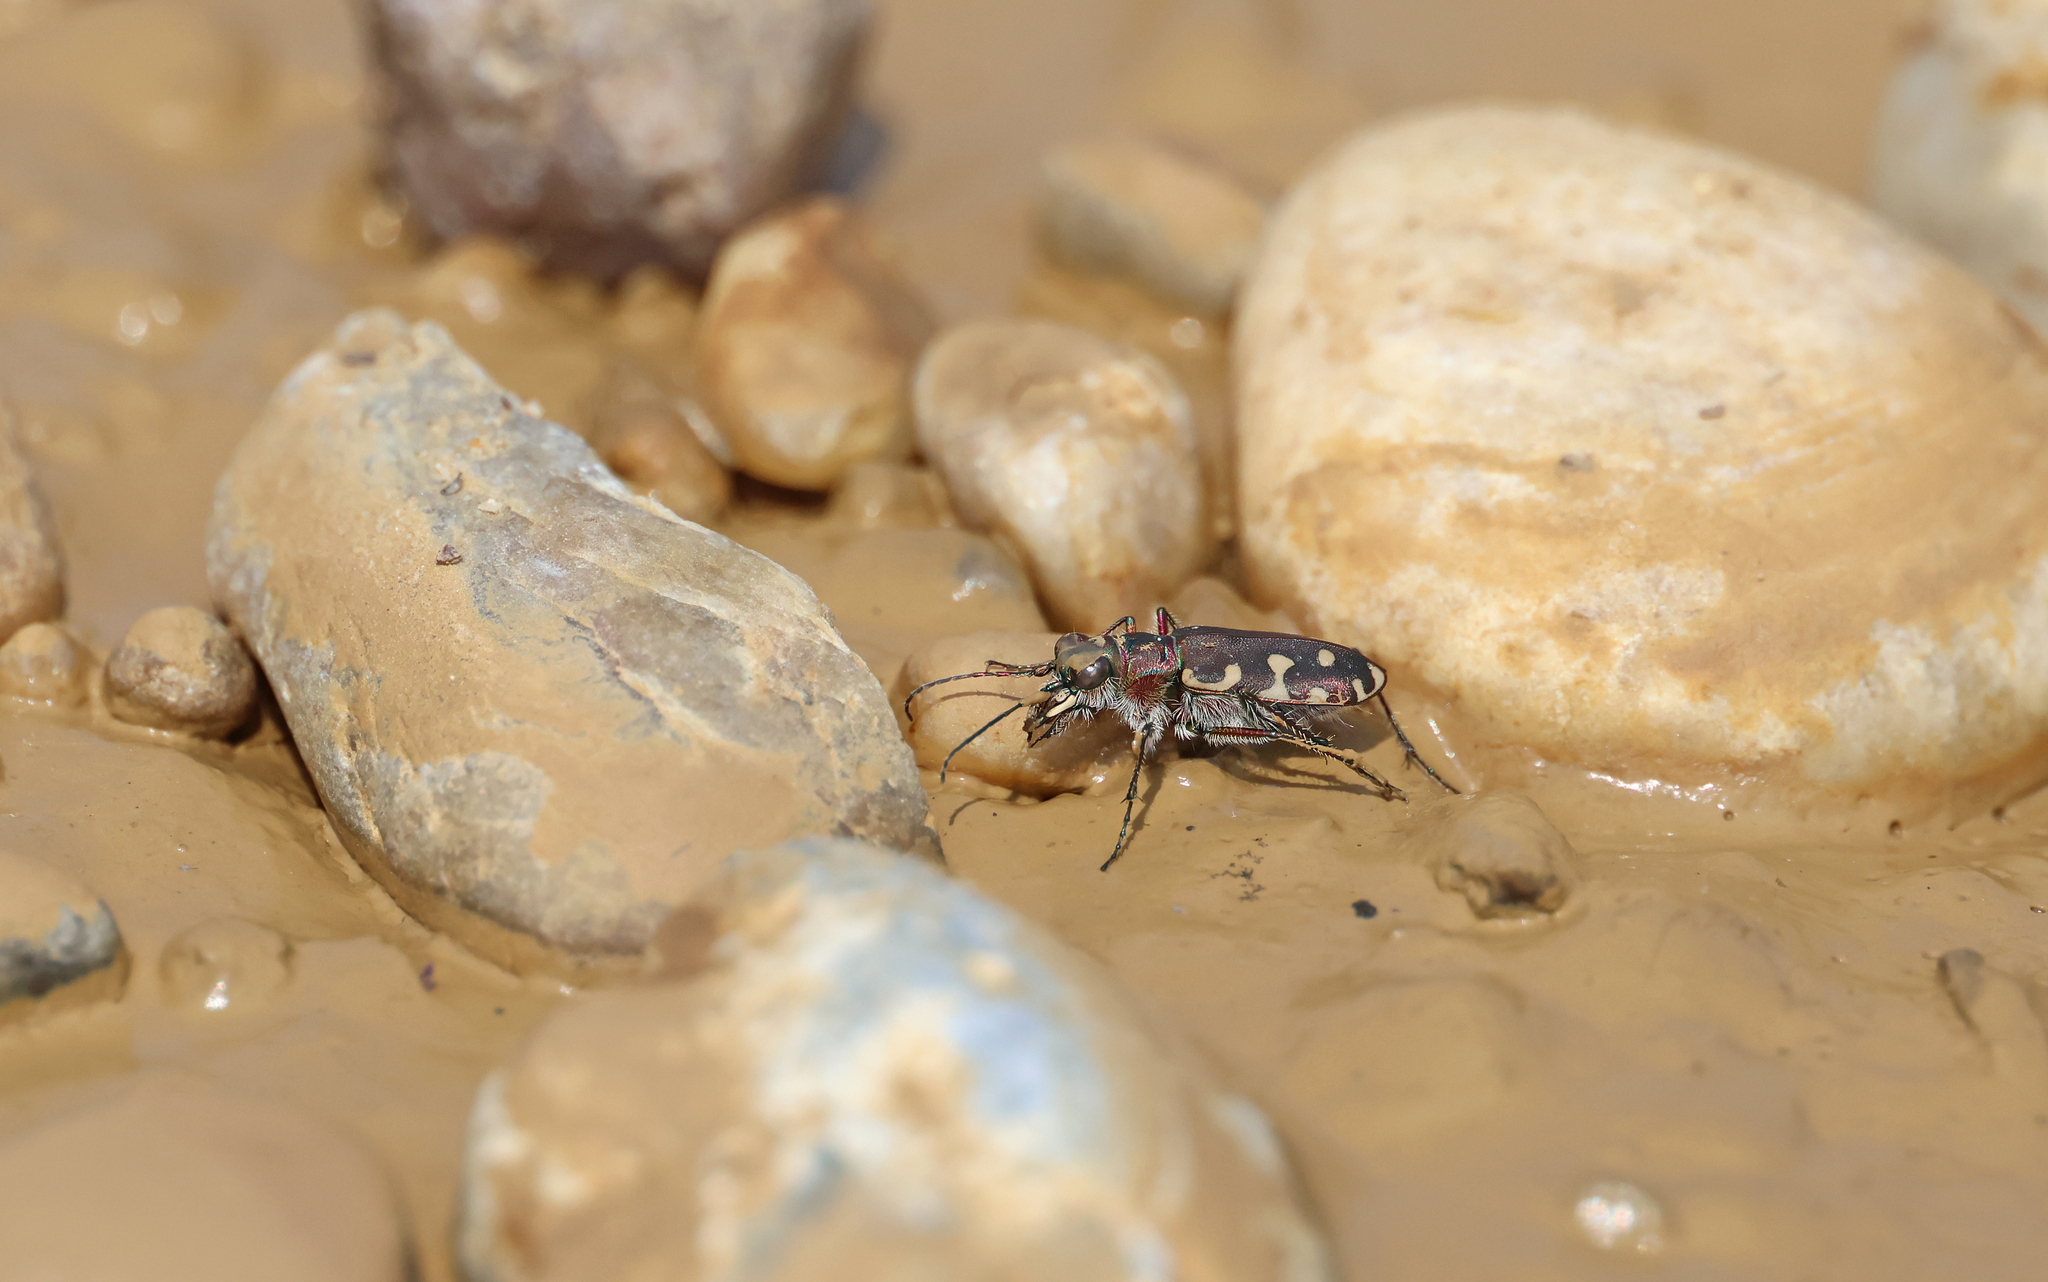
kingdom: Animalia
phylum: Arthropoda
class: Insecta
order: Coleoptera
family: Carabidae
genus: Cicindela
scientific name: Cicindela littoralis
